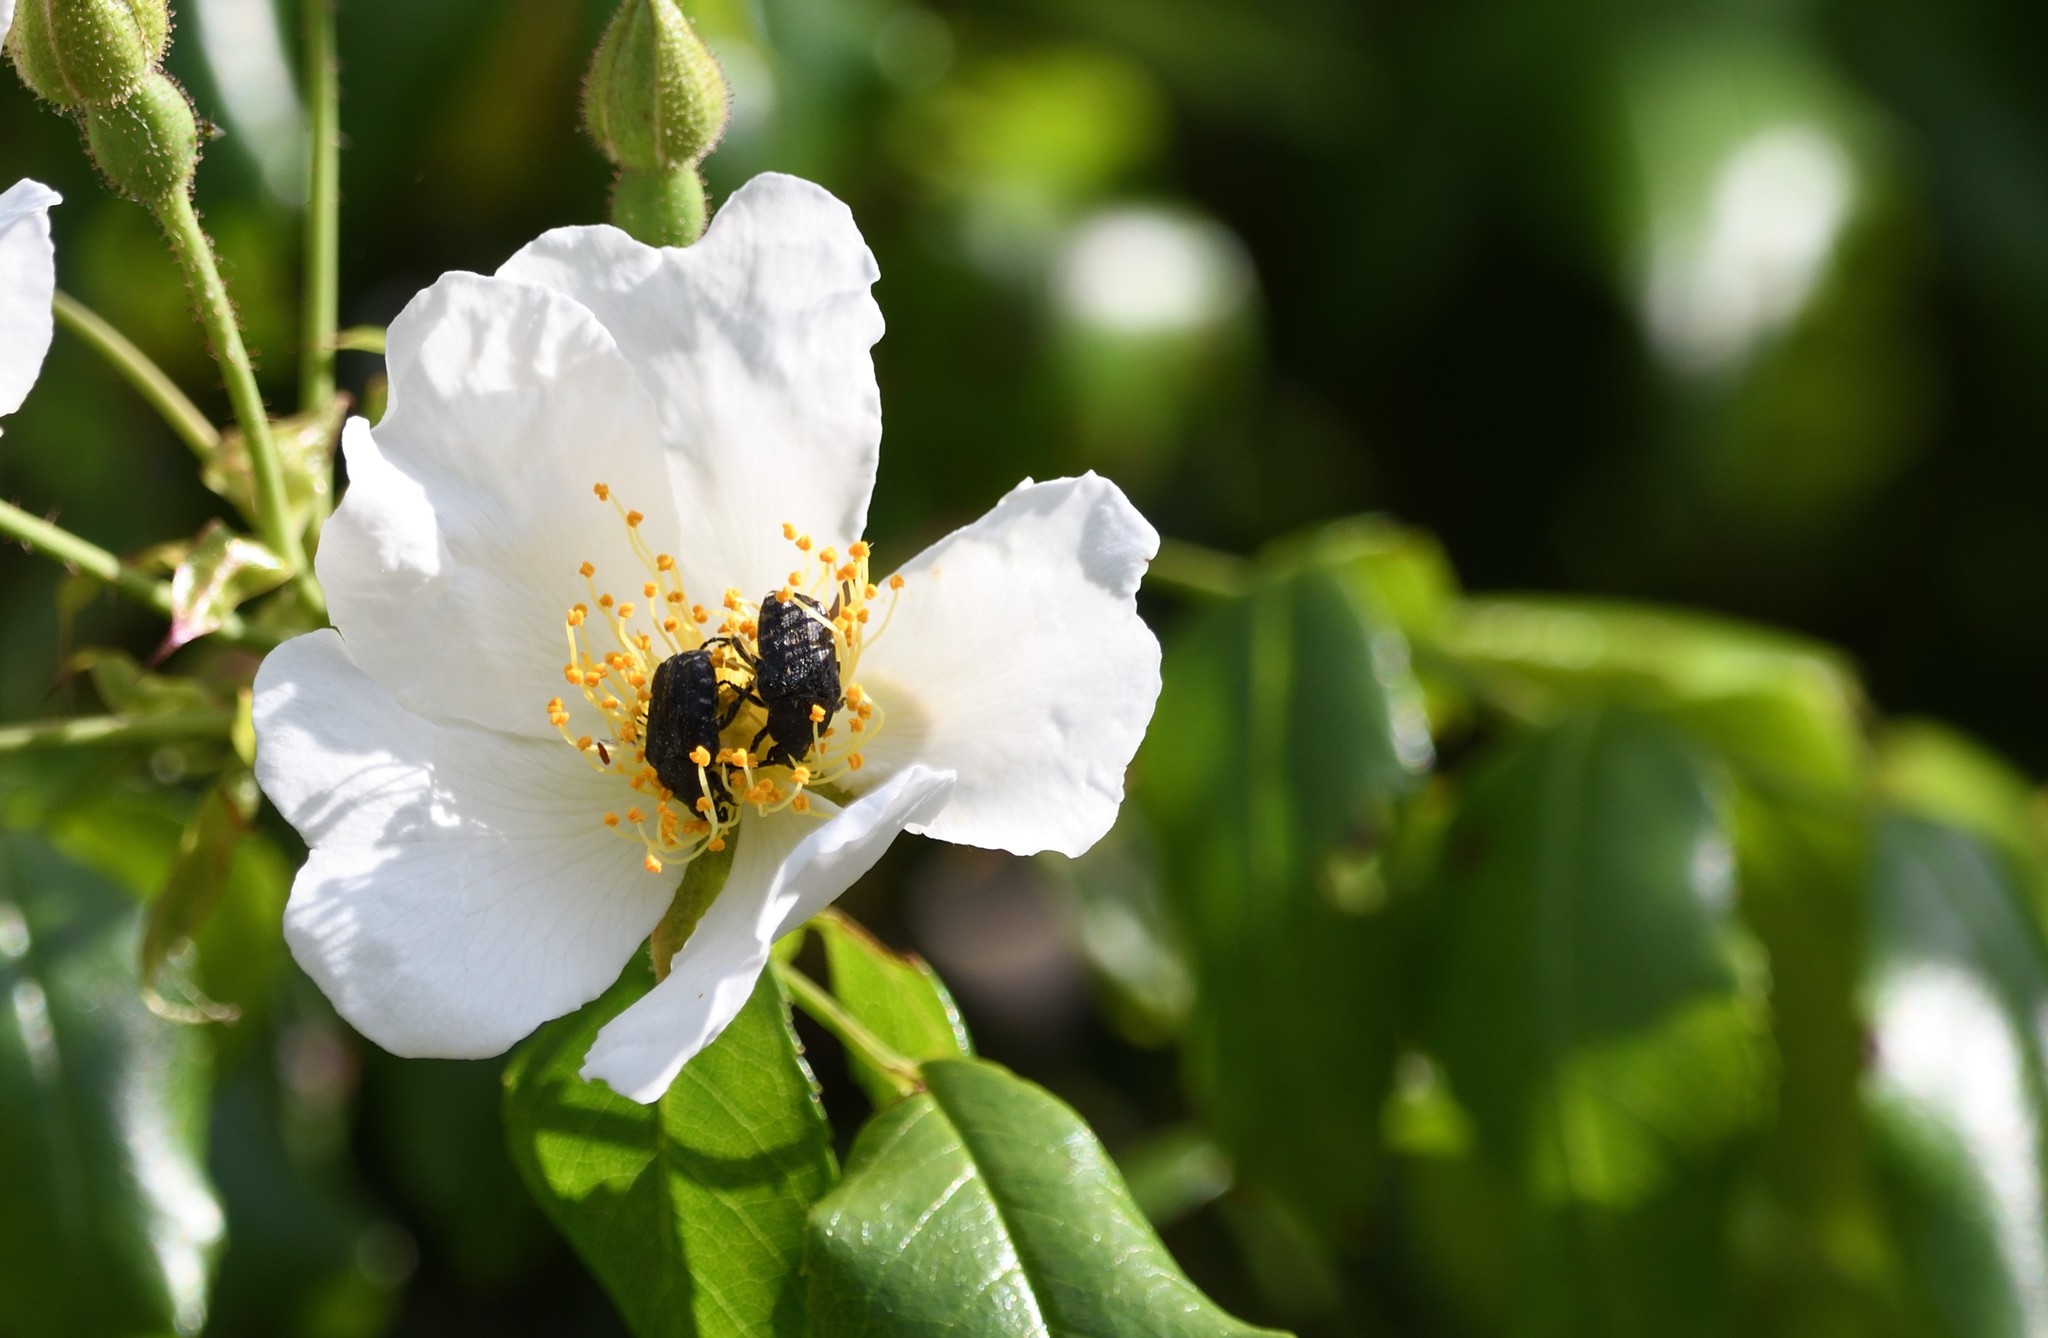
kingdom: Animalia
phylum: Arthropoda
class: Insecta
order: Coleoptera
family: Scarabaeidae
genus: Oxythyrea
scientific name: Oxythyrea funesta
